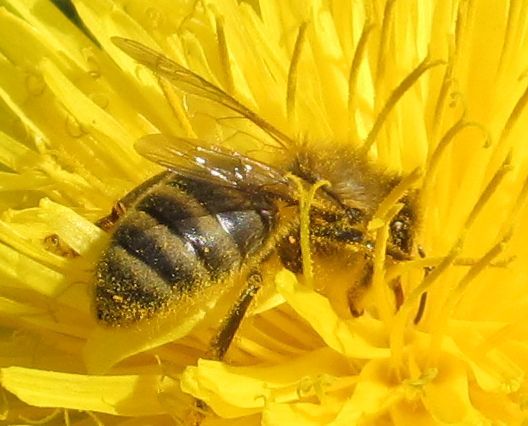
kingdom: Animalia
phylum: Arthropoda
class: Insecta
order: Hymenoptera
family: Apidae
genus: Apis
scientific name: Apis mellifera
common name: Honey bee
